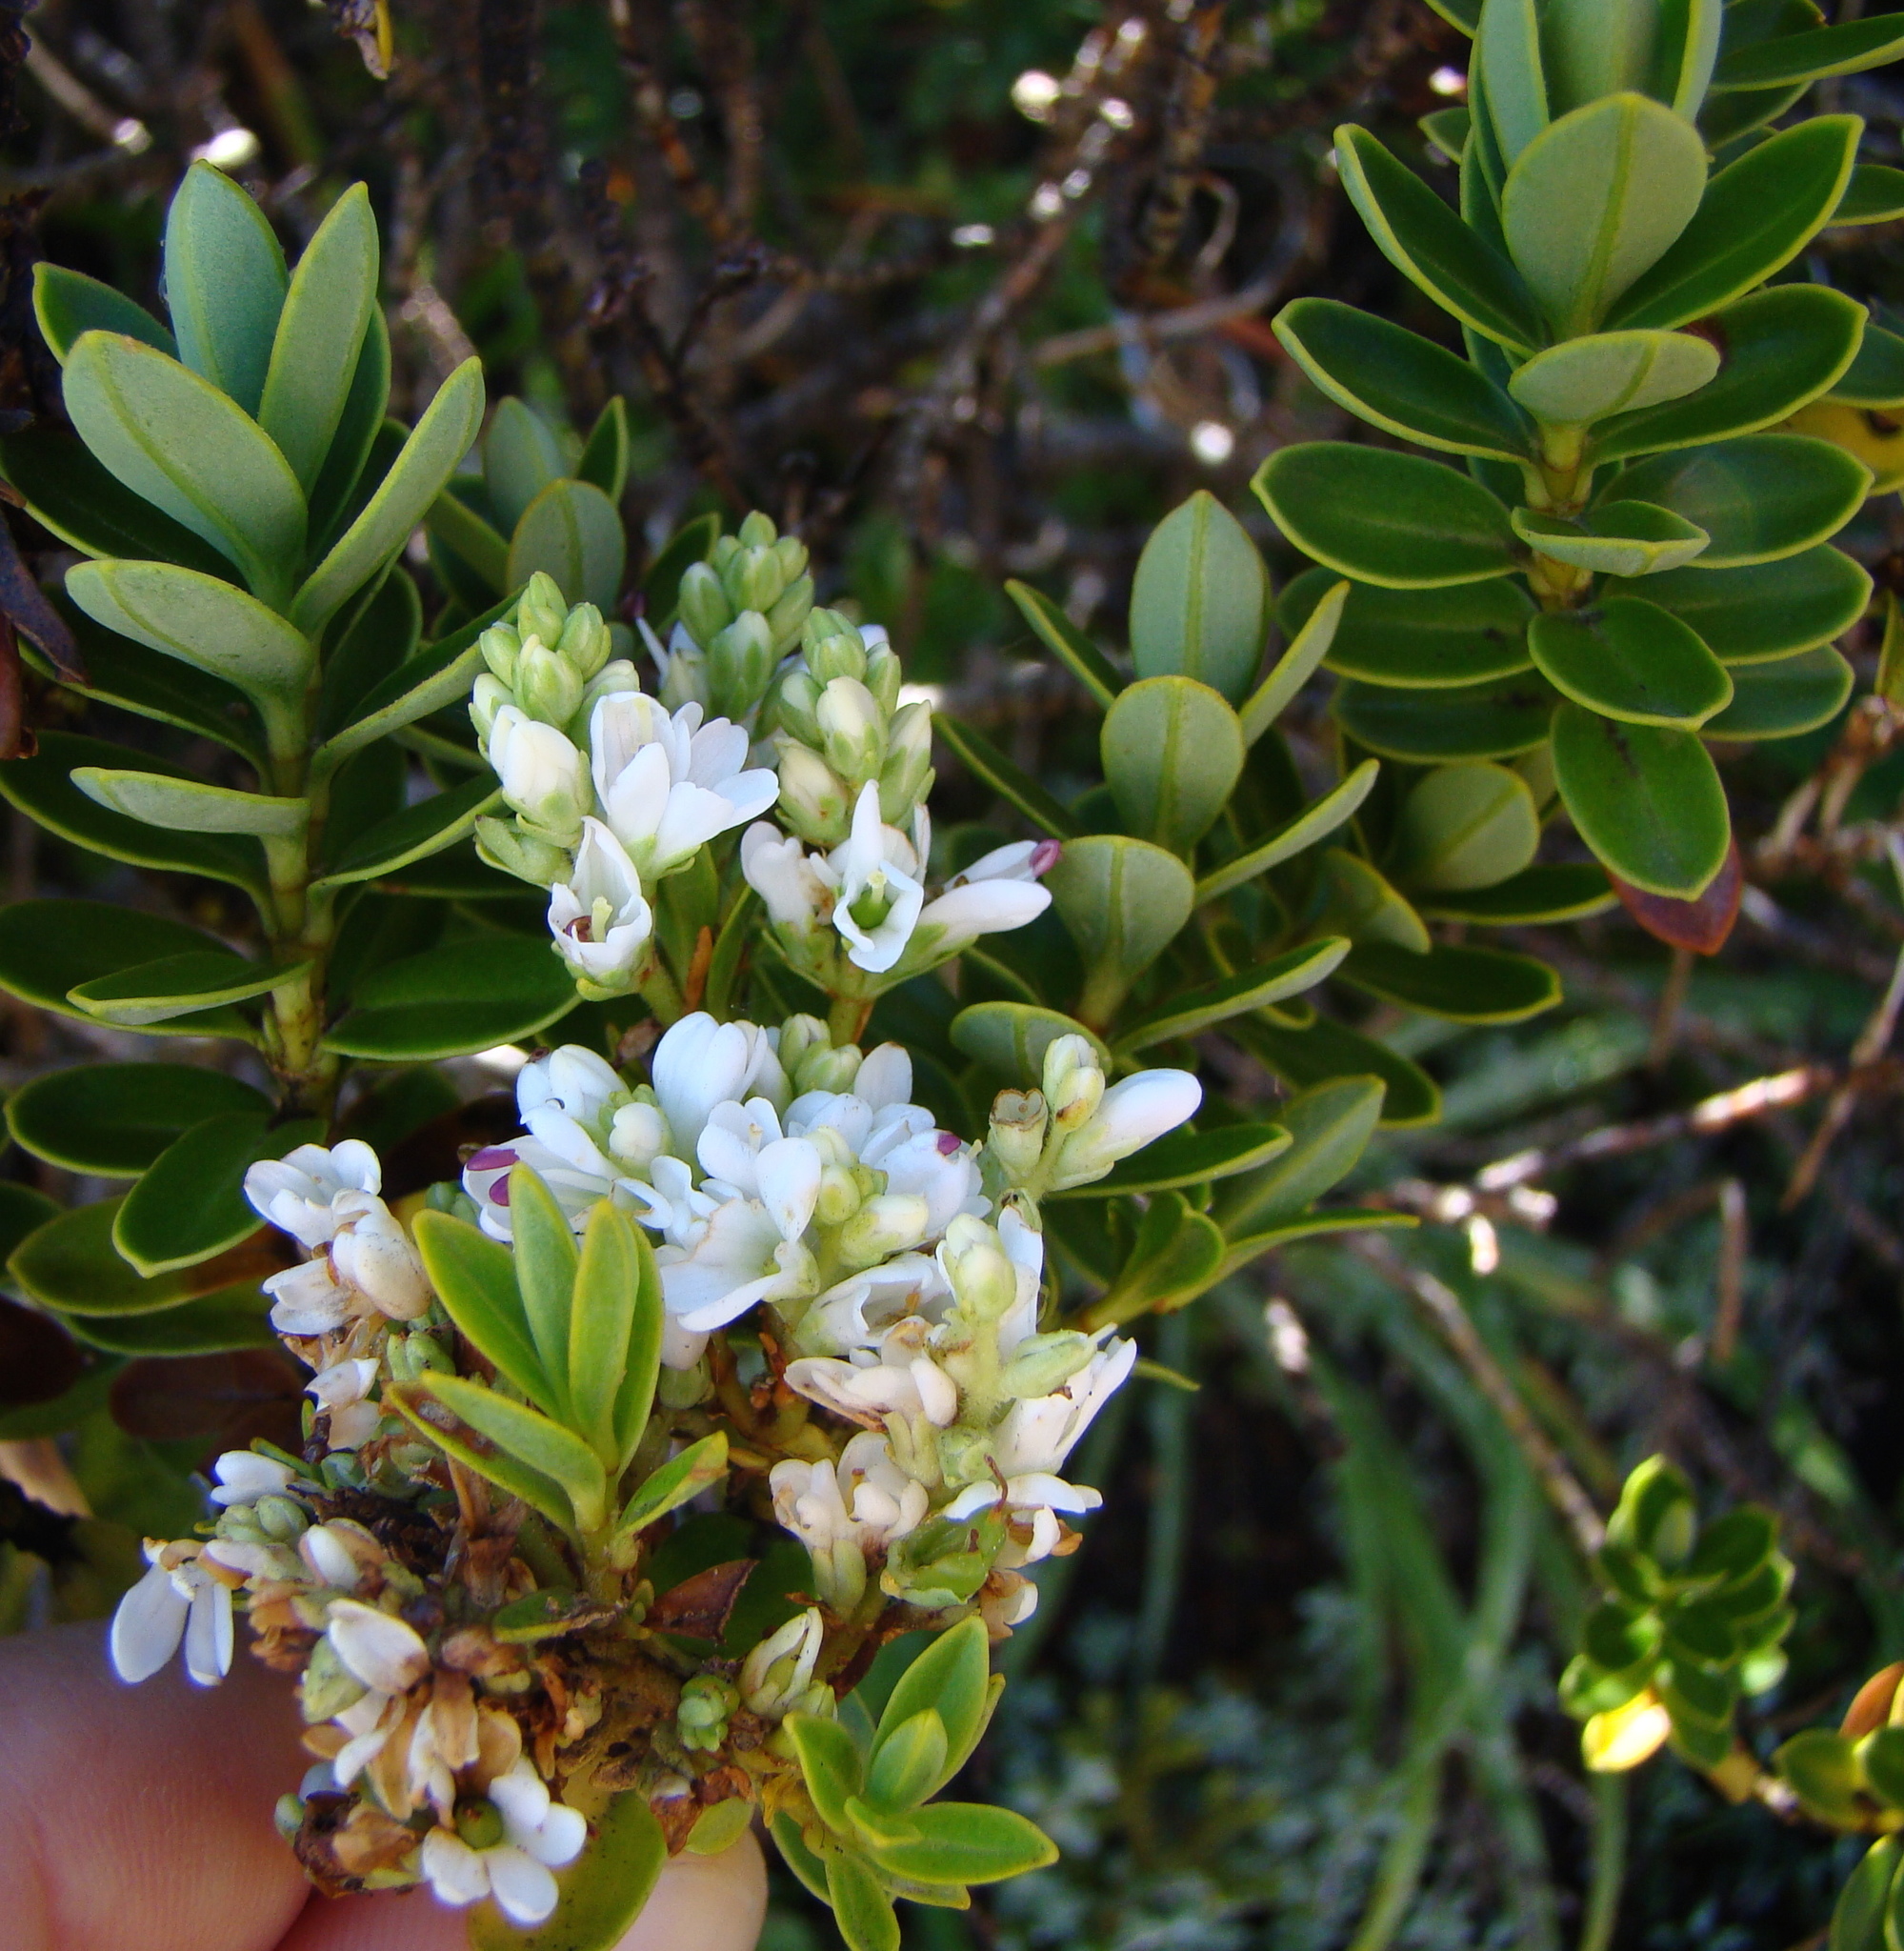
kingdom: Plantae
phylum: Tracheophyta
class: Magnoliopsida
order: Lamiales
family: Plantaginaceae
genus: Veronica
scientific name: Veronica cockayneana
